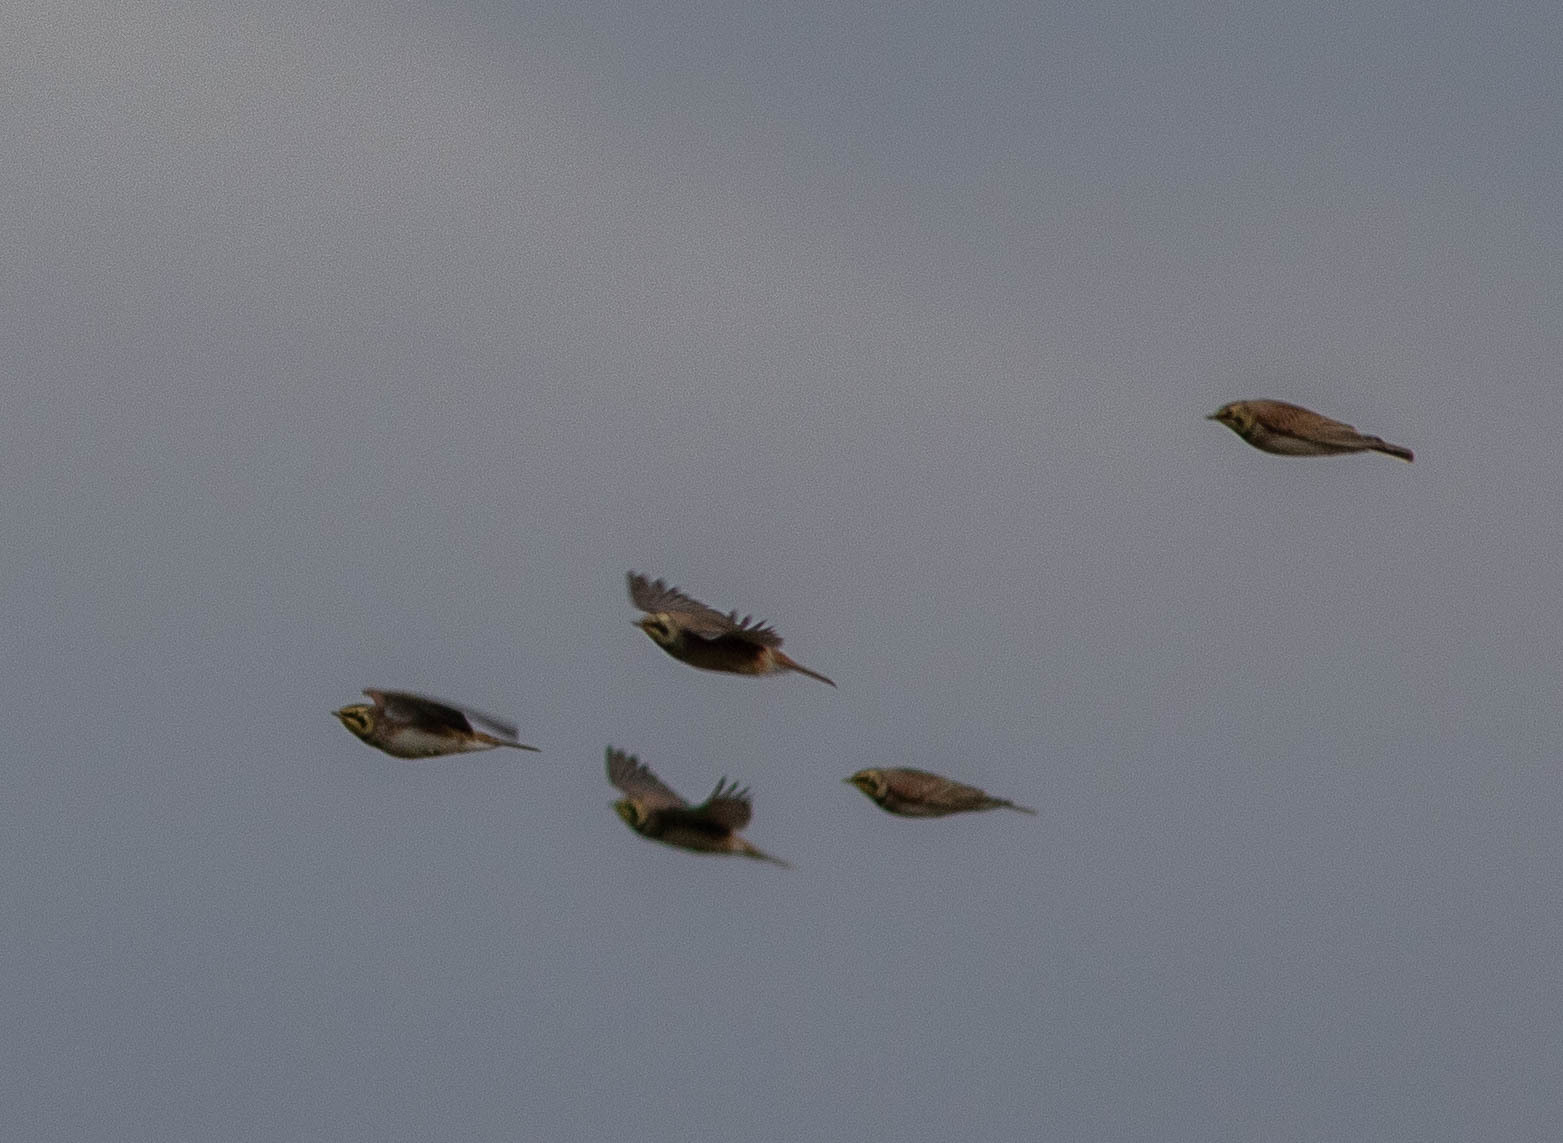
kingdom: Animalia
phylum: Chordata
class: Aves
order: Passeriformes
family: Alaudidae
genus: Eremophila
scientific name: Eremophila alpestris
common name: Horned lark
